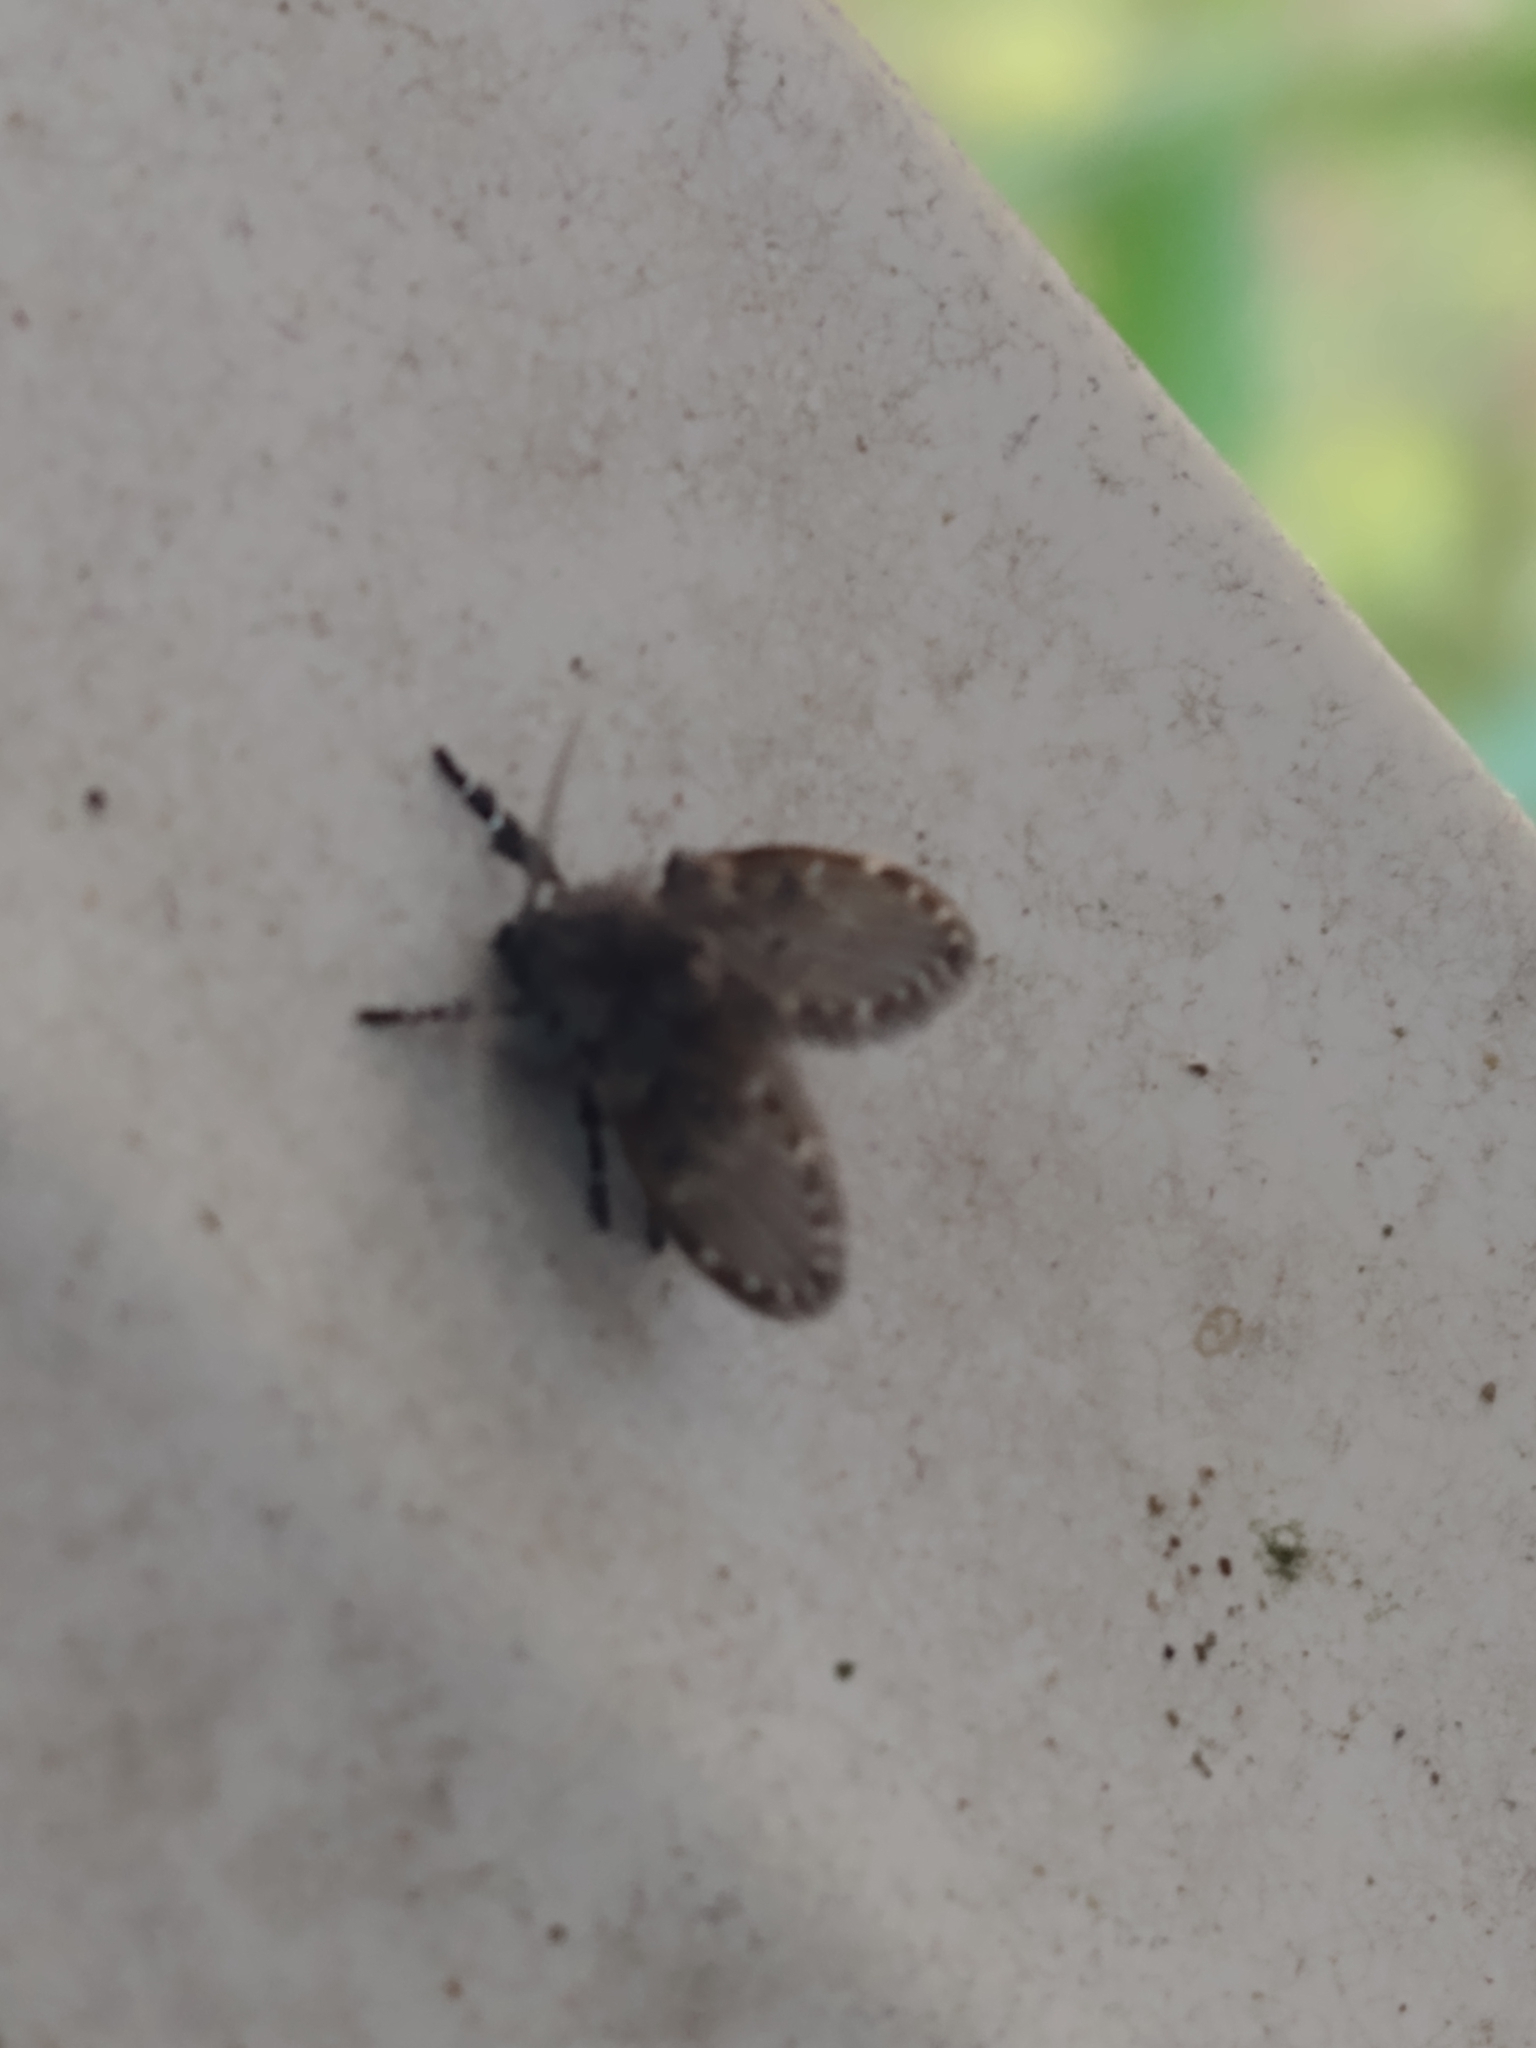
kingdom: Animalia
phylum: Arthropoda
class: Insecta
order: Diptera
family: Psychodidae
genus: Clogmia
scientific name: Clogmia albipunctatus
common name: White-spotted moth fly
